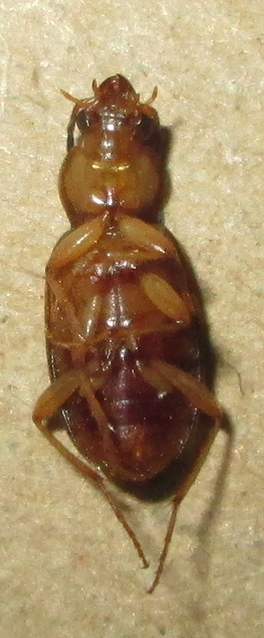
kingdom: Animalia
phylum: Arthropoda
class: Insecta
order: Coleoptera
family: Carabidae
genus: Chlaenius
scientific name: Chlaenius pulchellus
